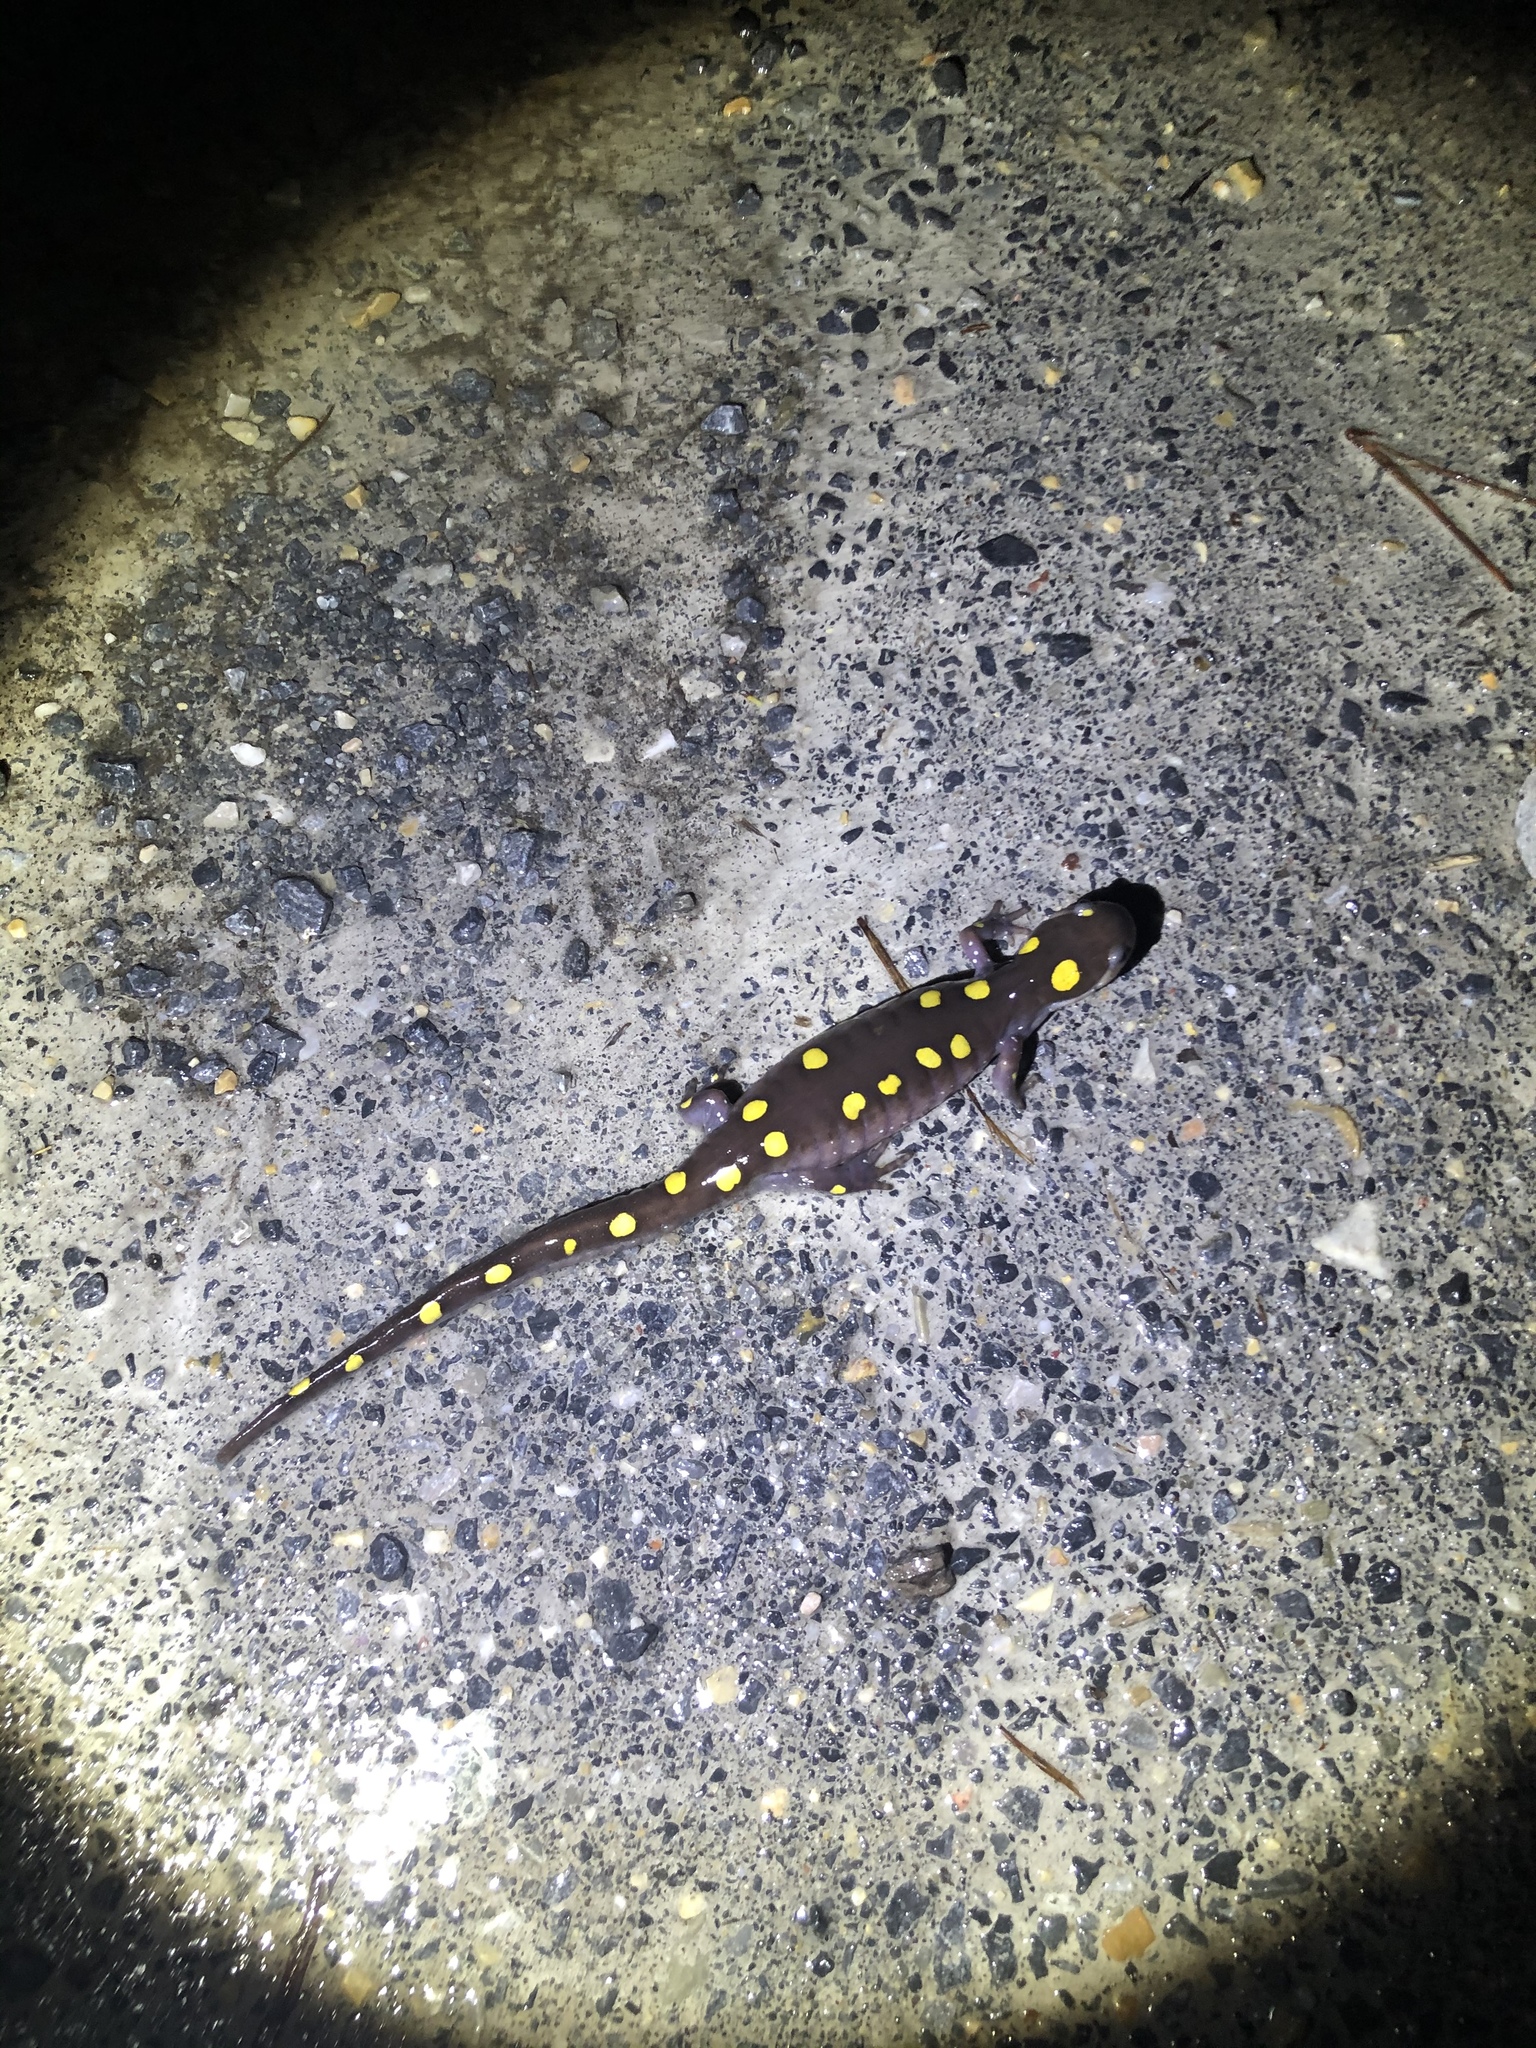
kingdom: Animalia
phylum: Chordata
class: Amphibia
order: Caudata
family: Ambystomatidae
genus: Ambystoma
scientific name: Ambystoma maculatum
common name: Spotted salamander
